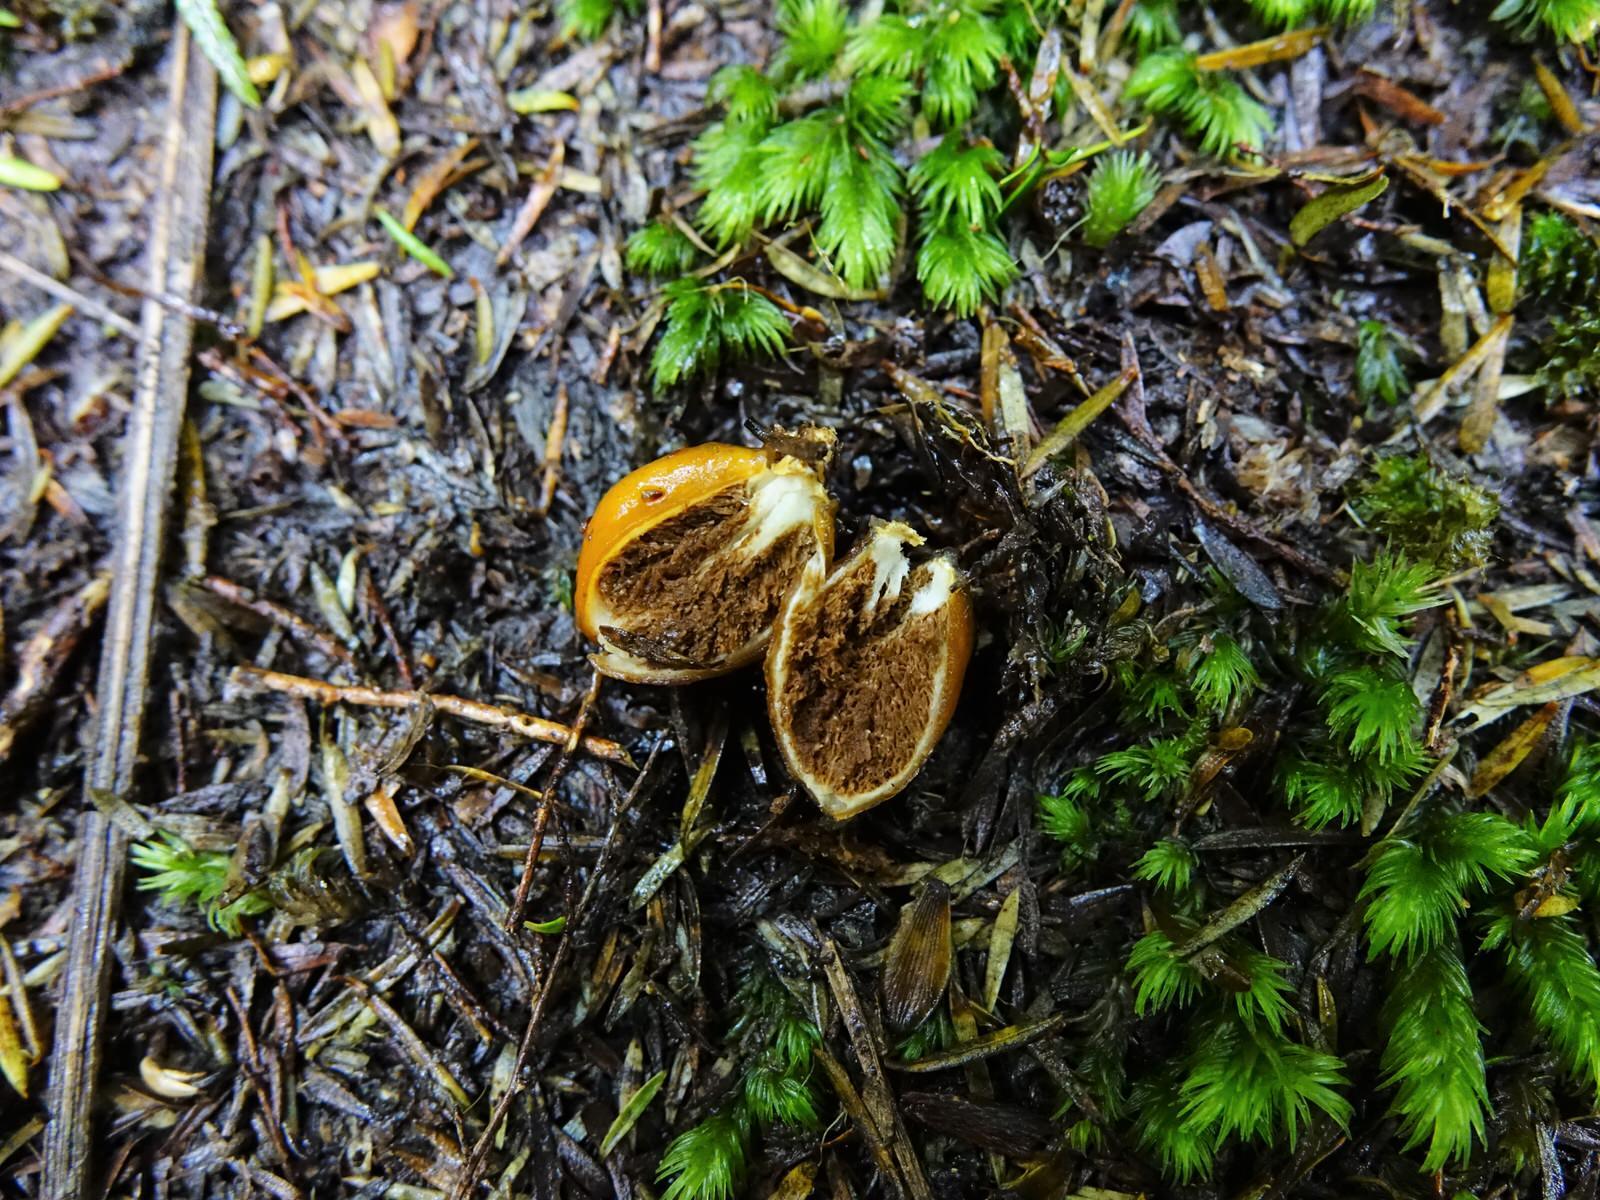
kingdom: Fungi
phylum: Basidiomycota
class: Agaricomycetes
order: Agaricales
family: Cortinariaceae
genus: Cortinarius
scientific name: Cortinarius peraurantiacus
